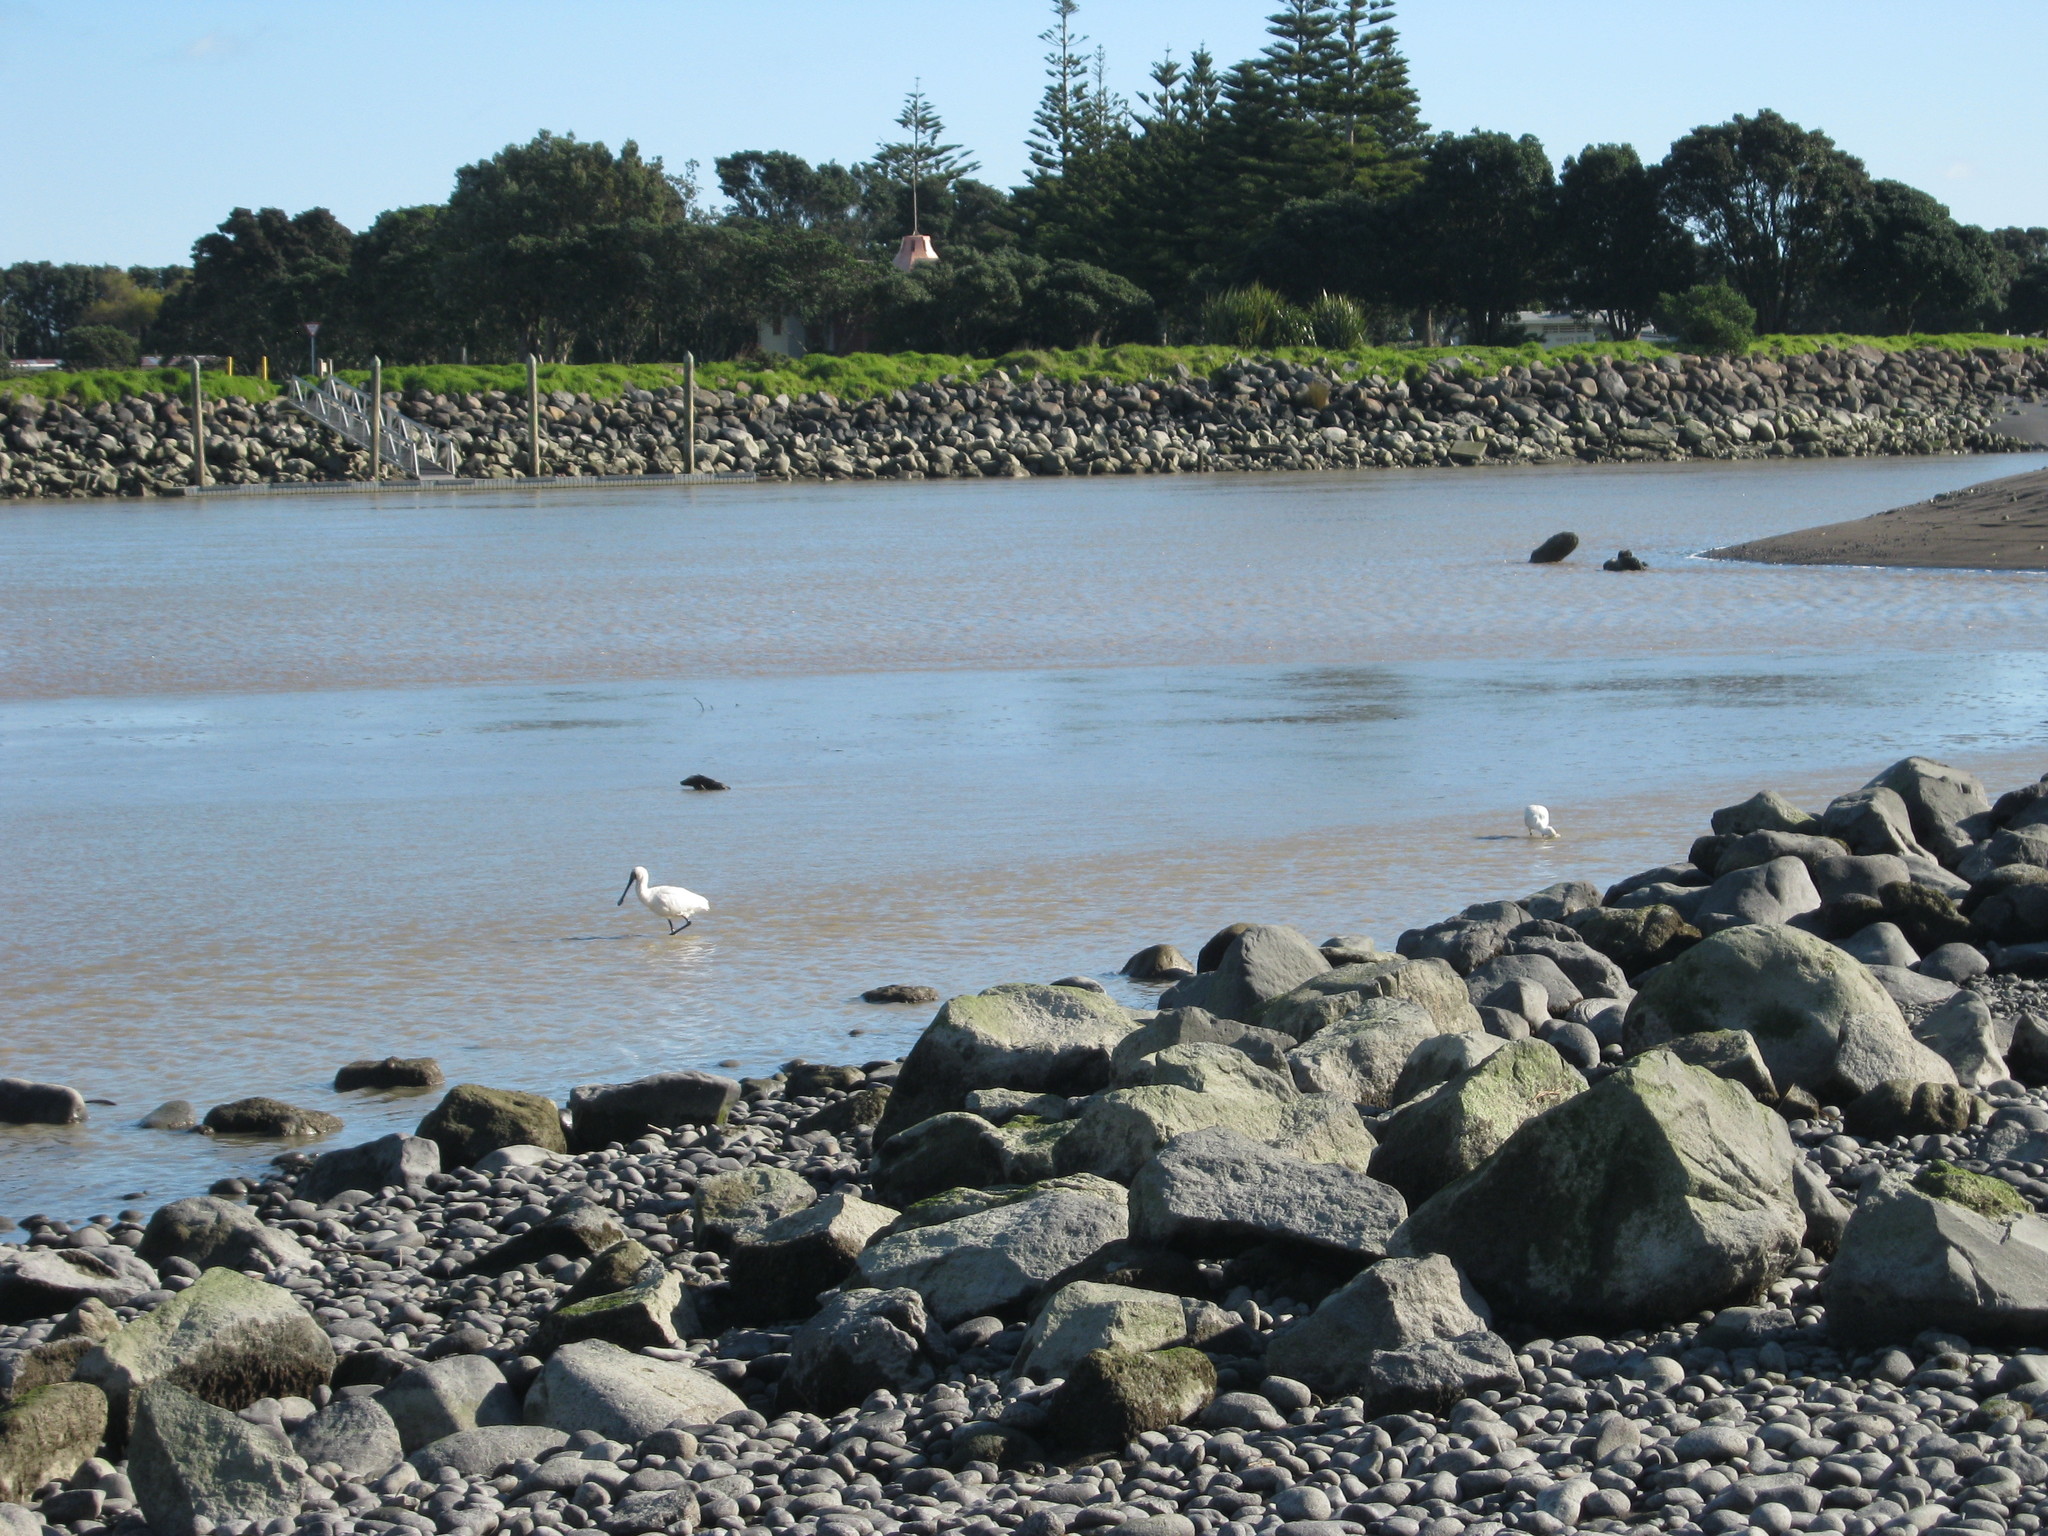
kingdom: Animalia
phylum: Chordata
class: Aves
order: Pelecaniformes
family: Threskiornithidae
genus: Platalea
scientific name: Platalea regia
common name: Royal spoonbill
